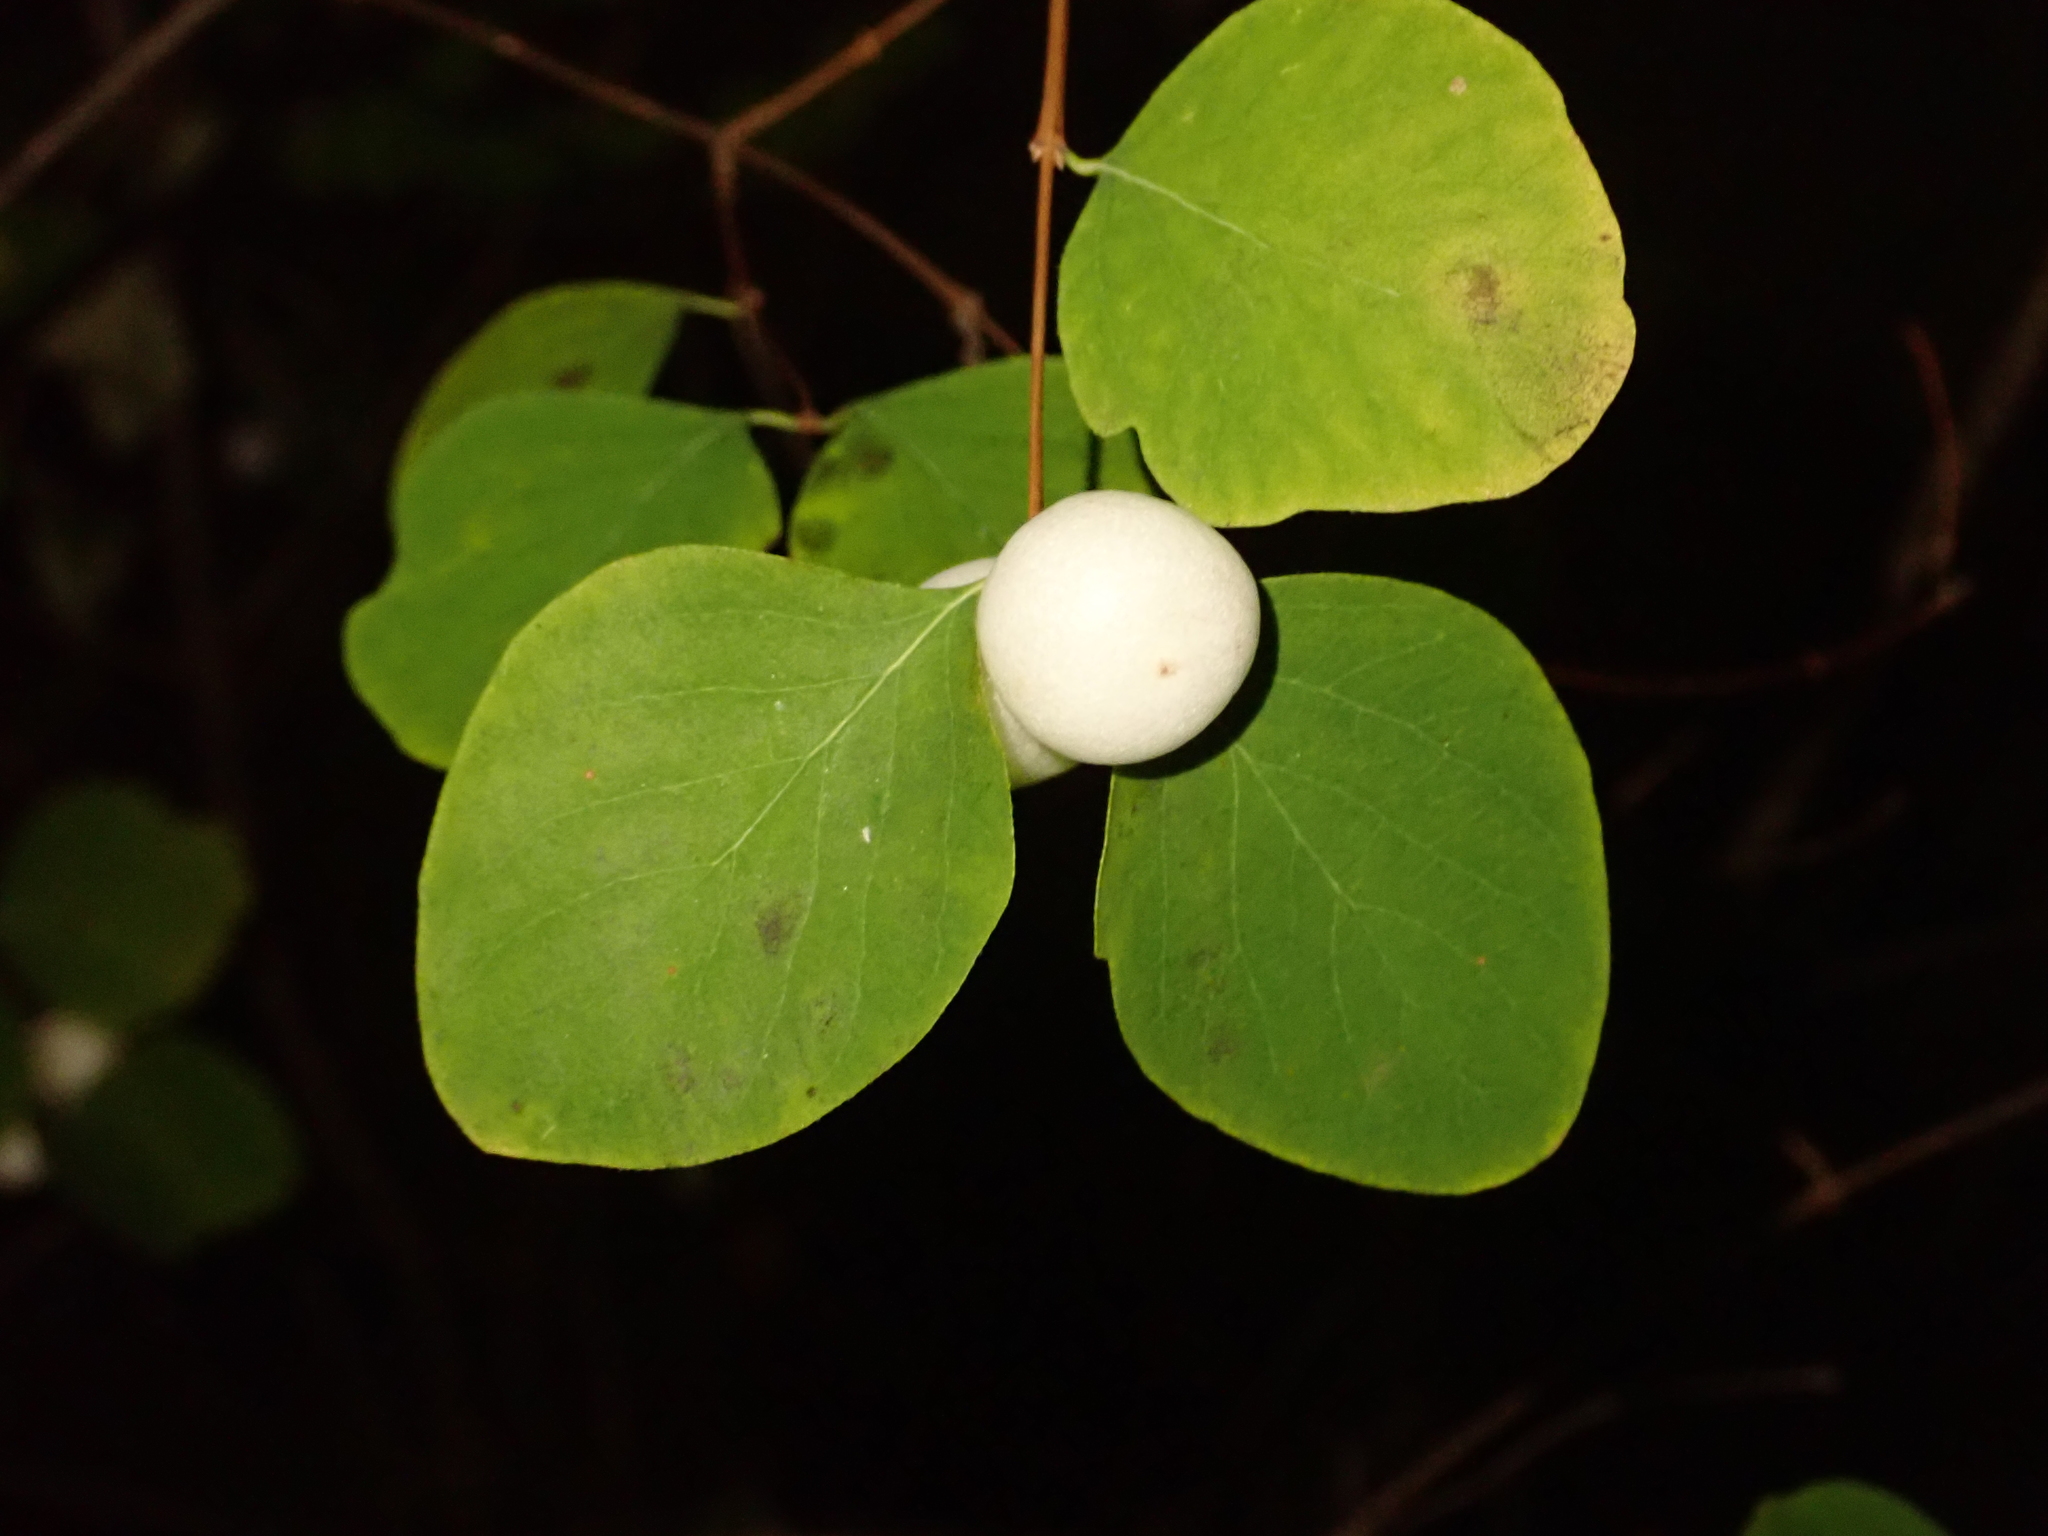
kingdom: Plantae
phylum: Tracheophyta
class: Magnoliopsida
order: Dipsacales
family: Caprifoliaceae
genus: Symphoricarpos
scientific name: Symphoricarpos albus
